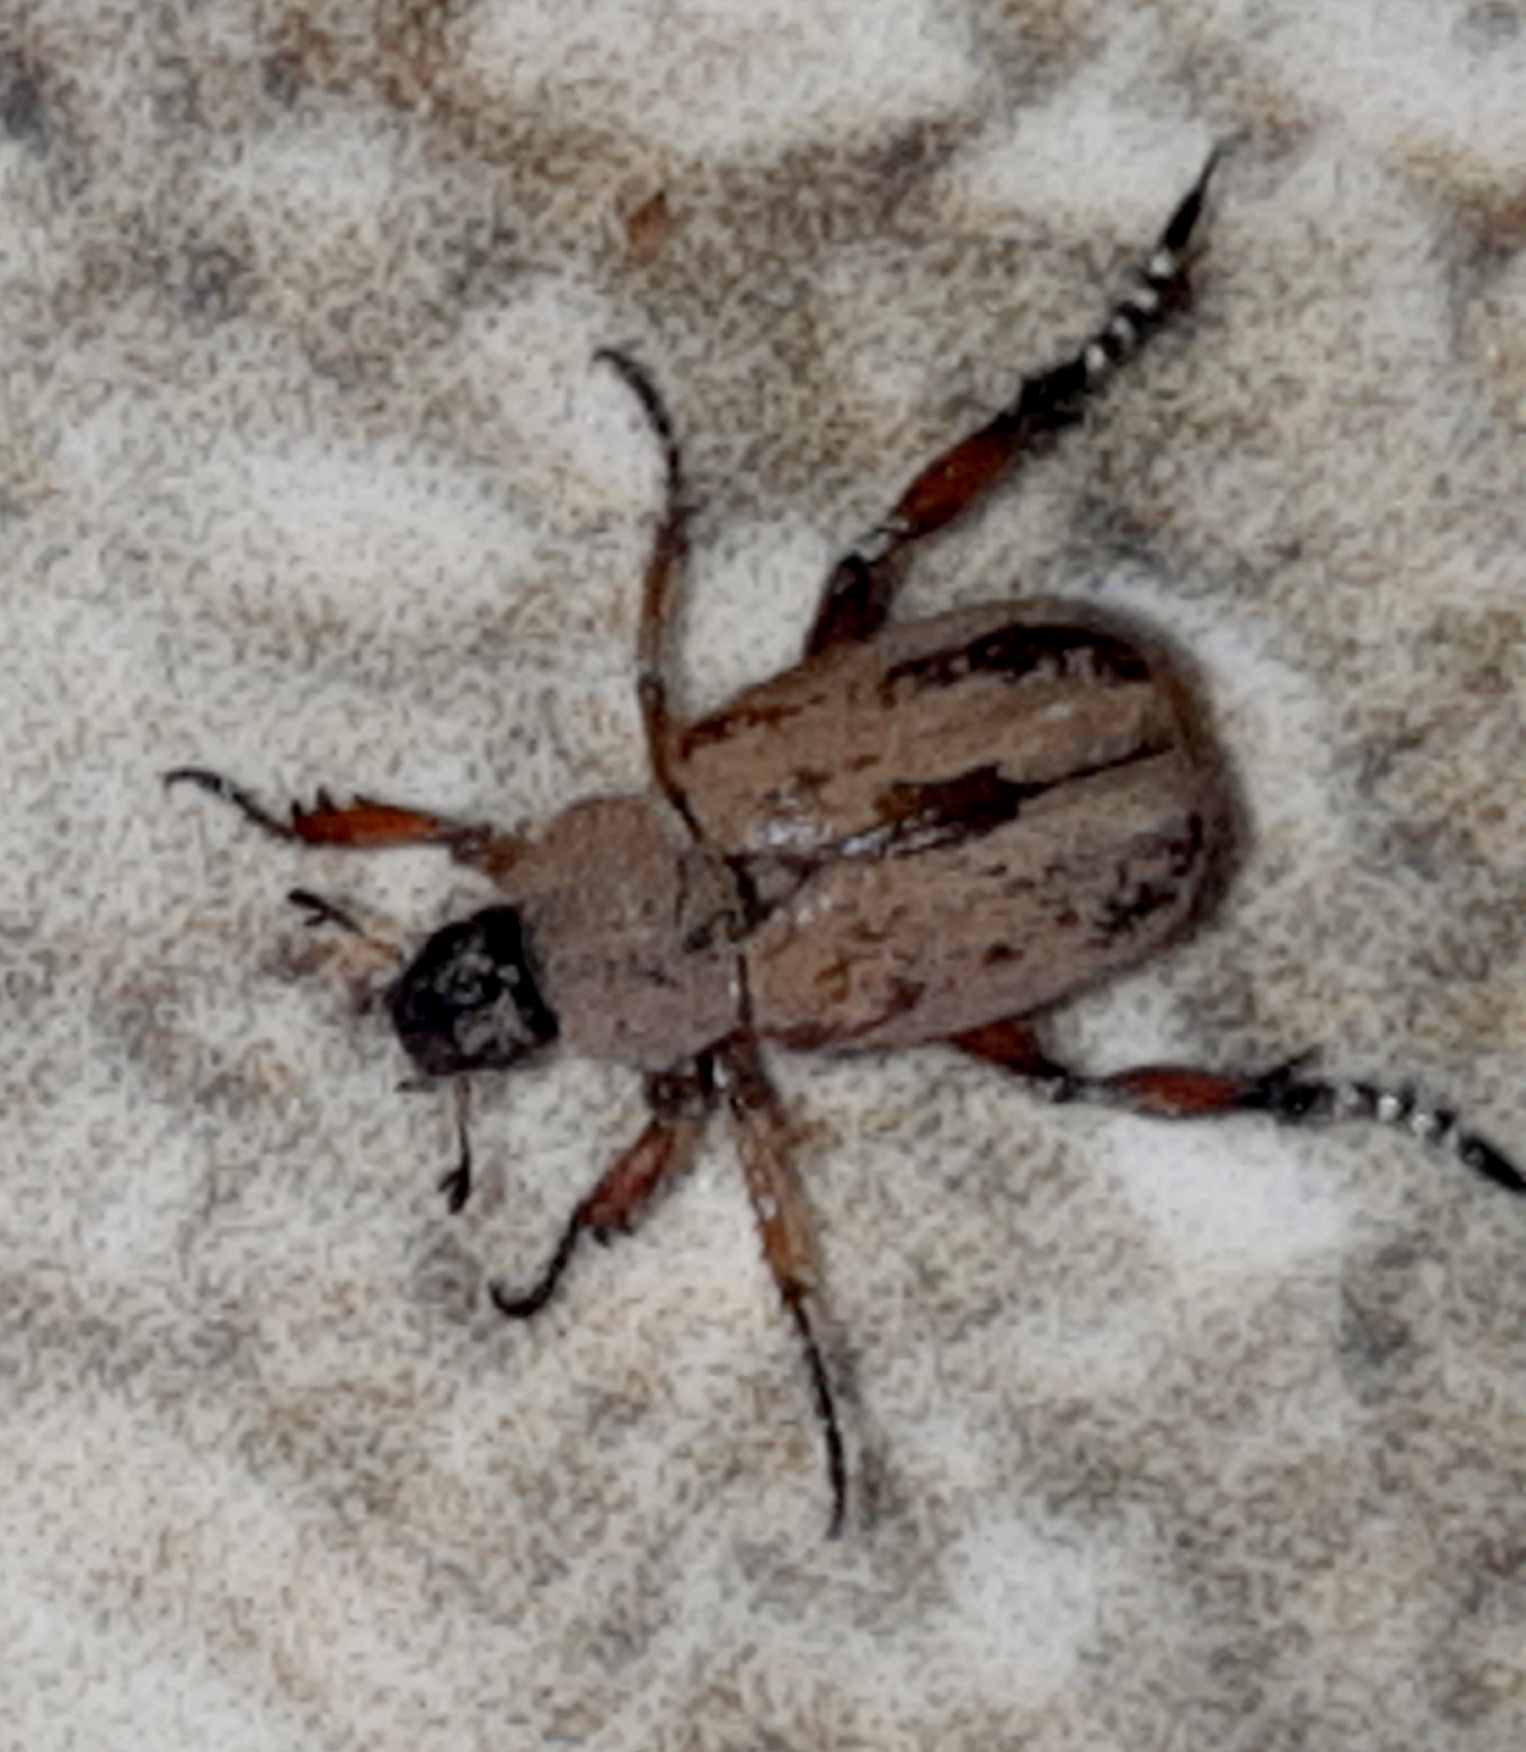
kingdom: Animalia
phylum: Arthropoda
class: Insecta
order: Coleoptera
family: Scarabaeidae
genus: Hoplia
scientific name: Hoplia surata
